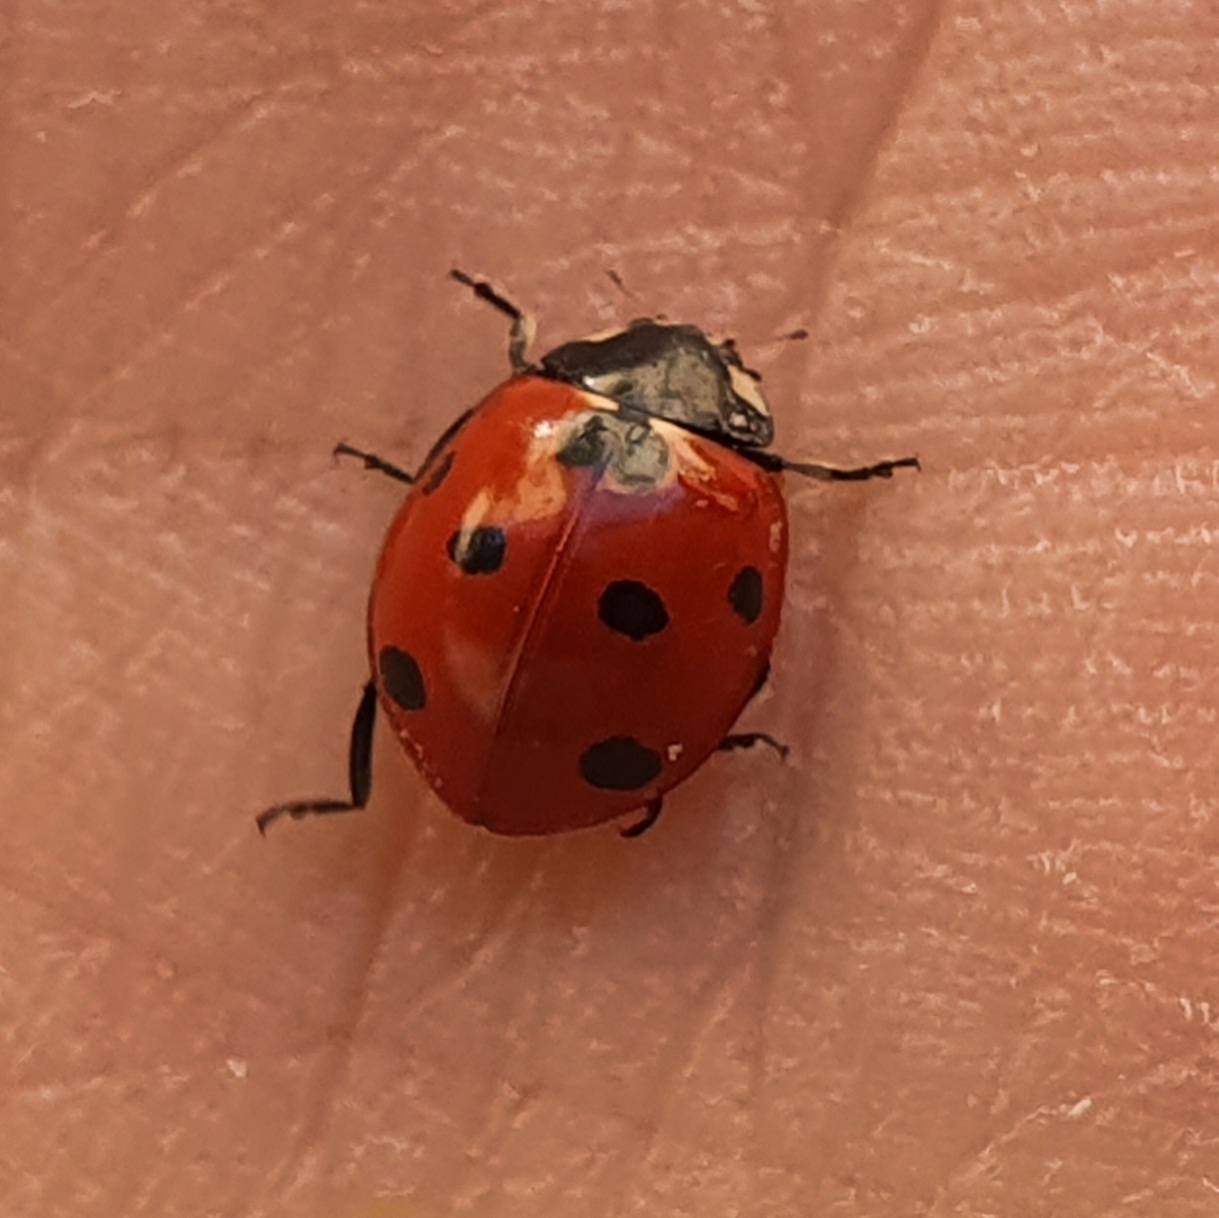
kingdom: Animalia
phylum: Arthropoda
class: Insecta
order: Coleoptera
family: Coccinellidae
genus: Coccinella
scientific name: Coccinella algerica
